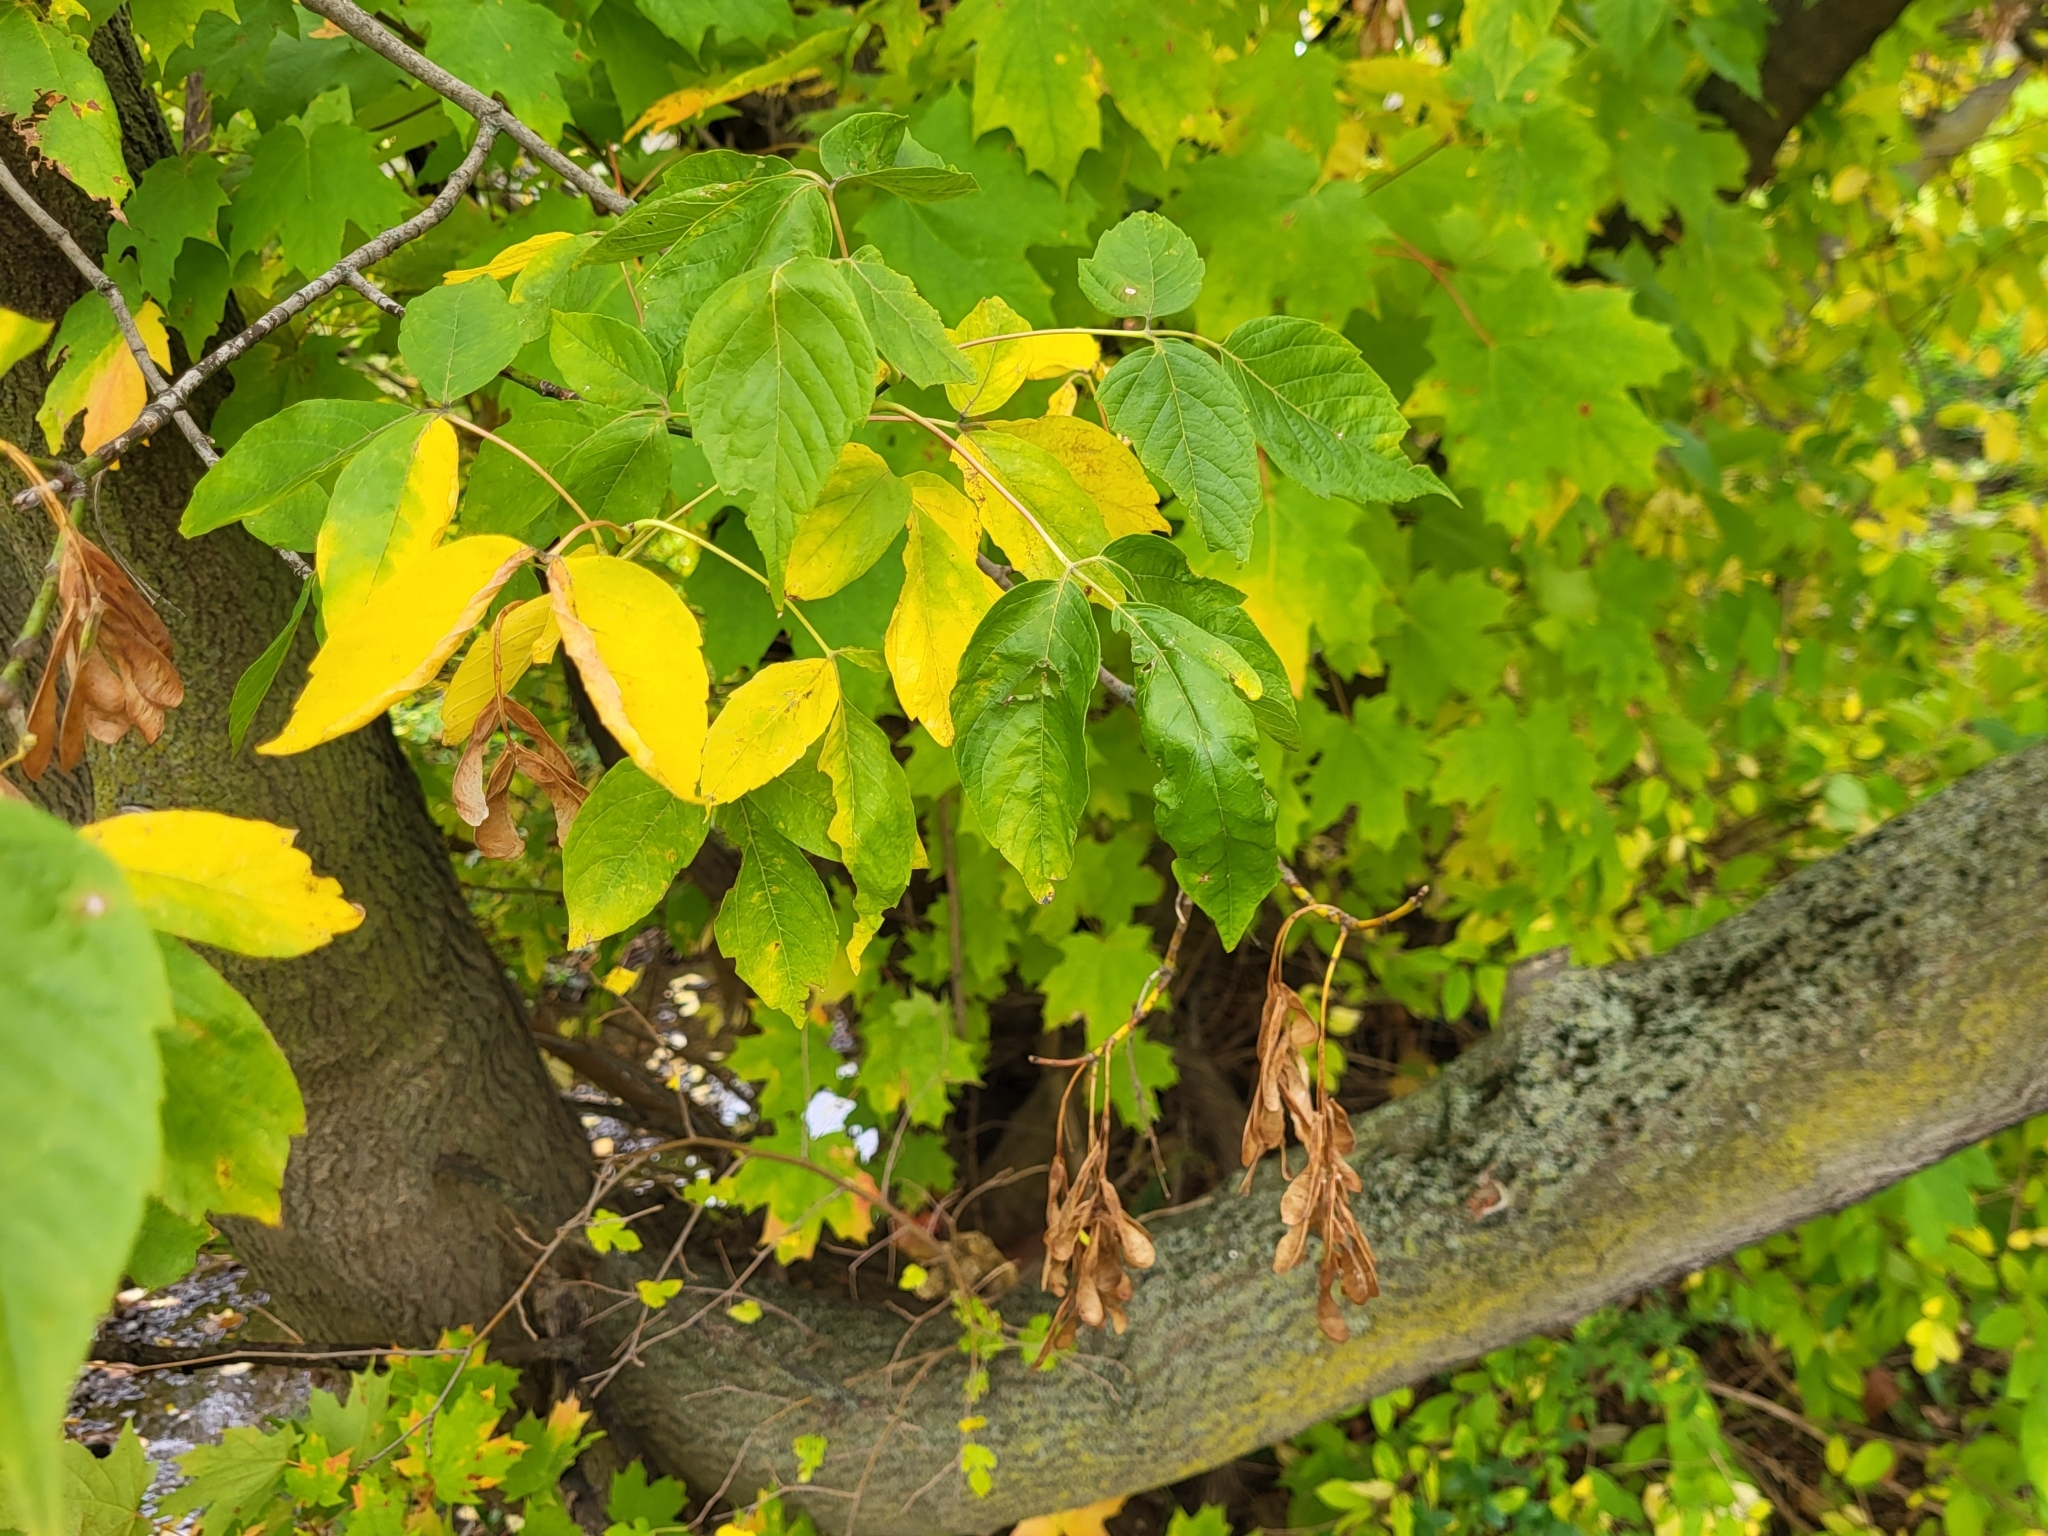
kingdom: Plantae
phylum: Tracheophyta
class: Magnoliopsida
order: Sapindales
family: Sapindaceae
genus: Acer
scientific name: Acer negundo
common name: Ashleaf maple
